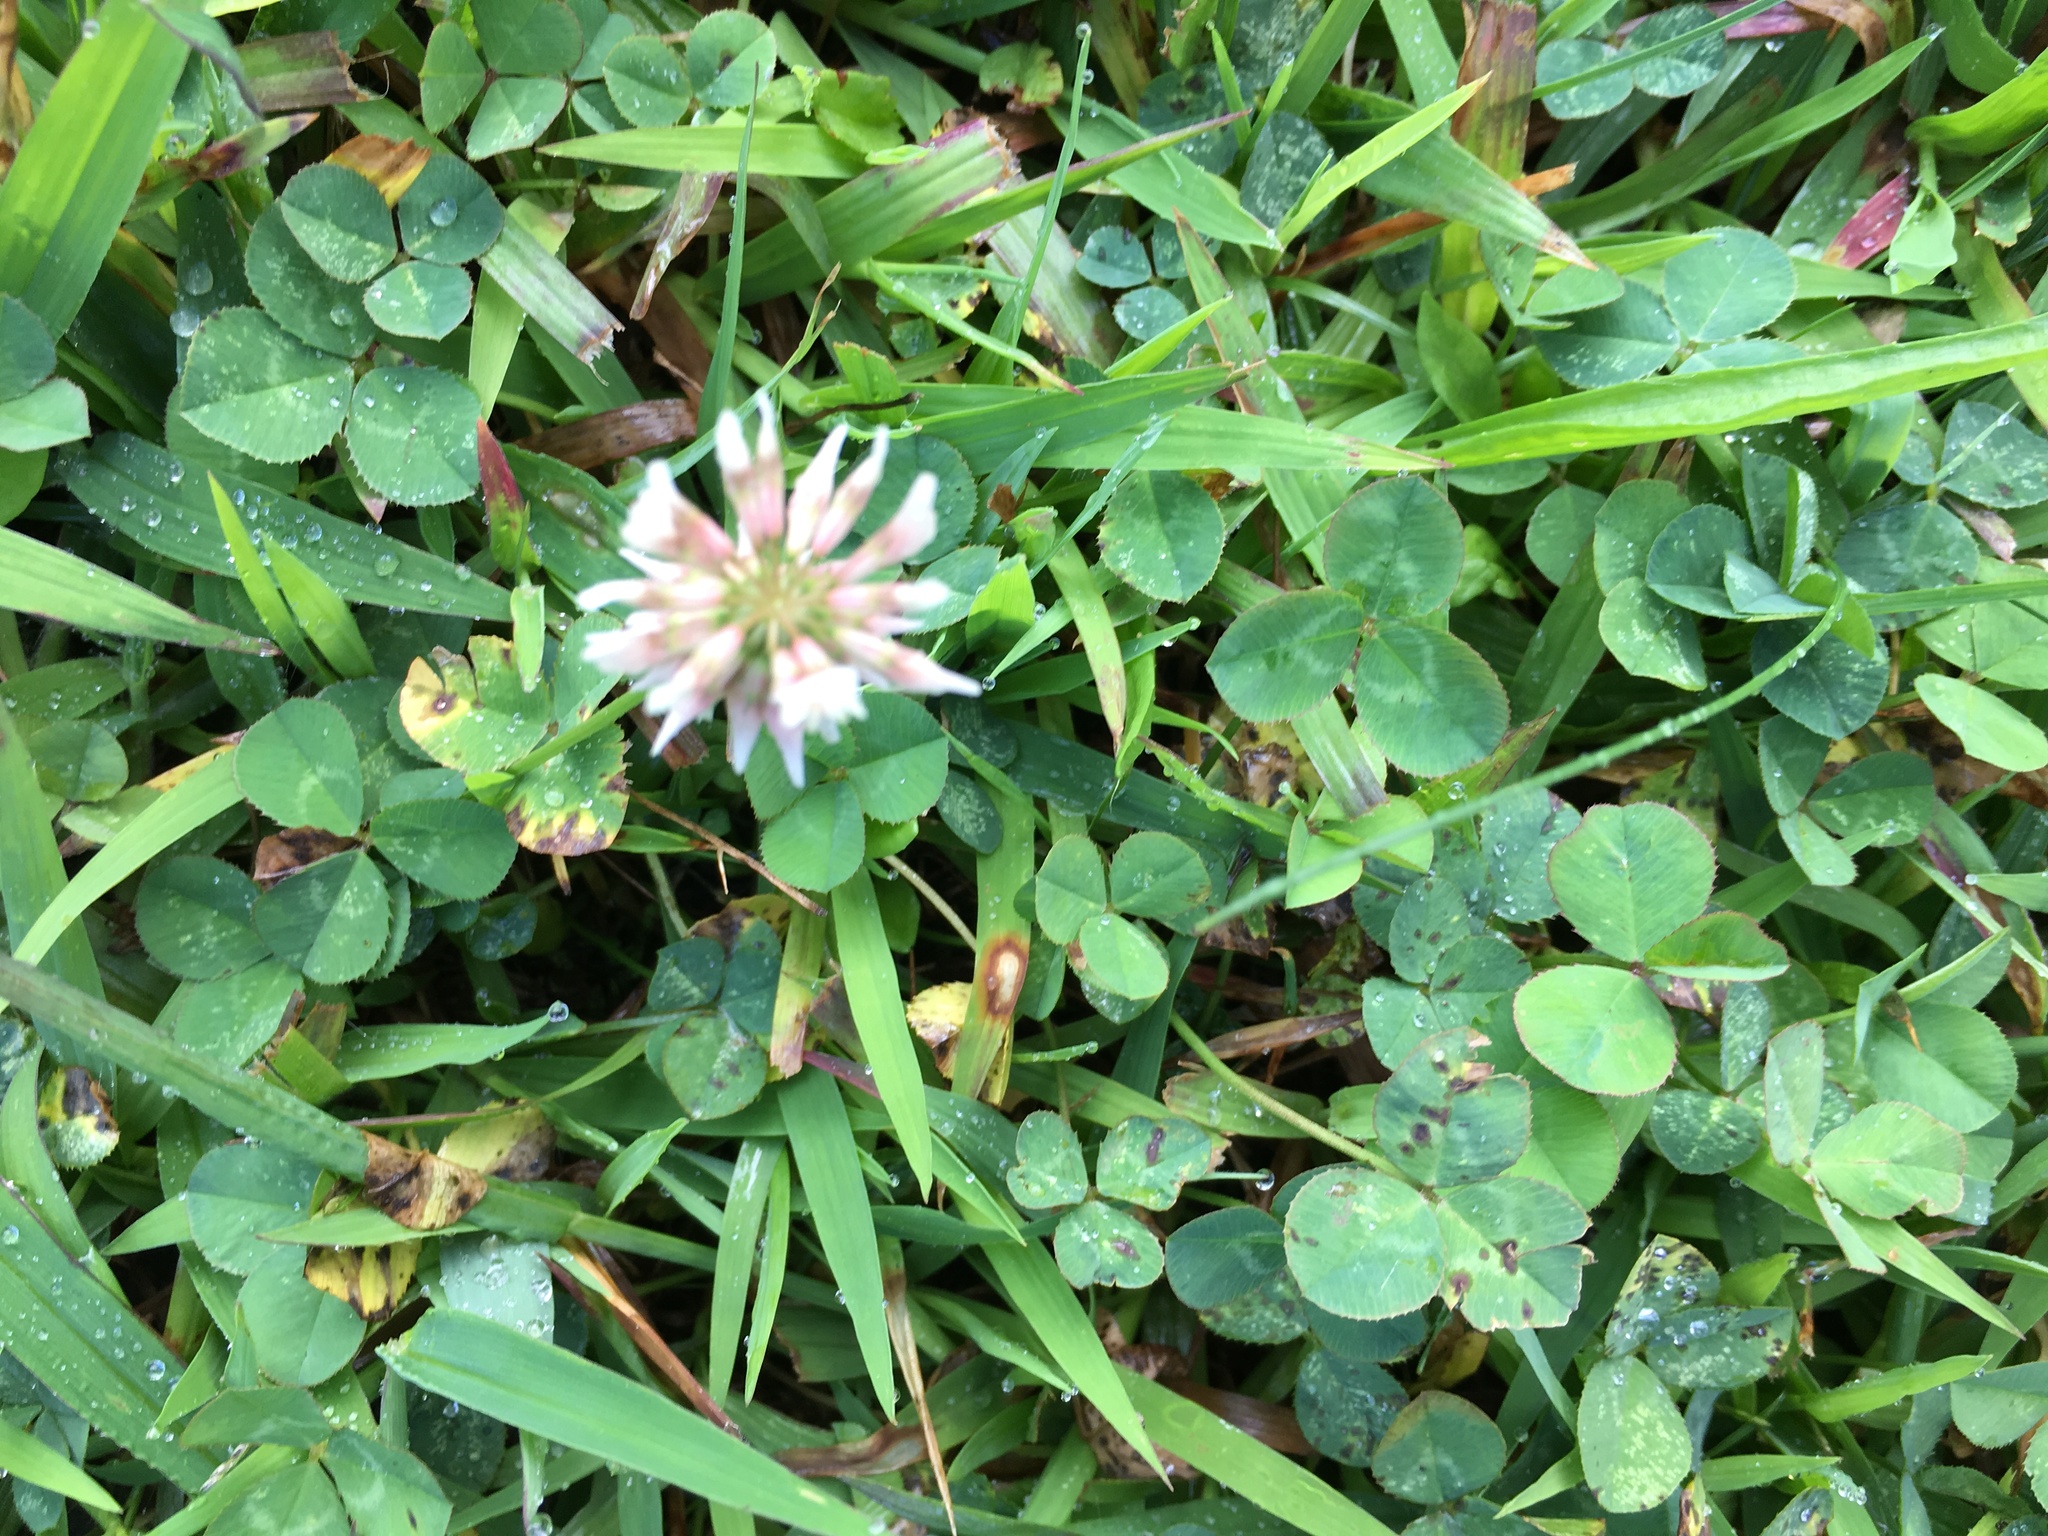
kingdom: Plantae
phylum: Tracheophyta
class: Magnoliopsida
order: Fabales
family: Fabaceae
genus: Trifolium
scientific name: Trifolium repens
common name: White clover
